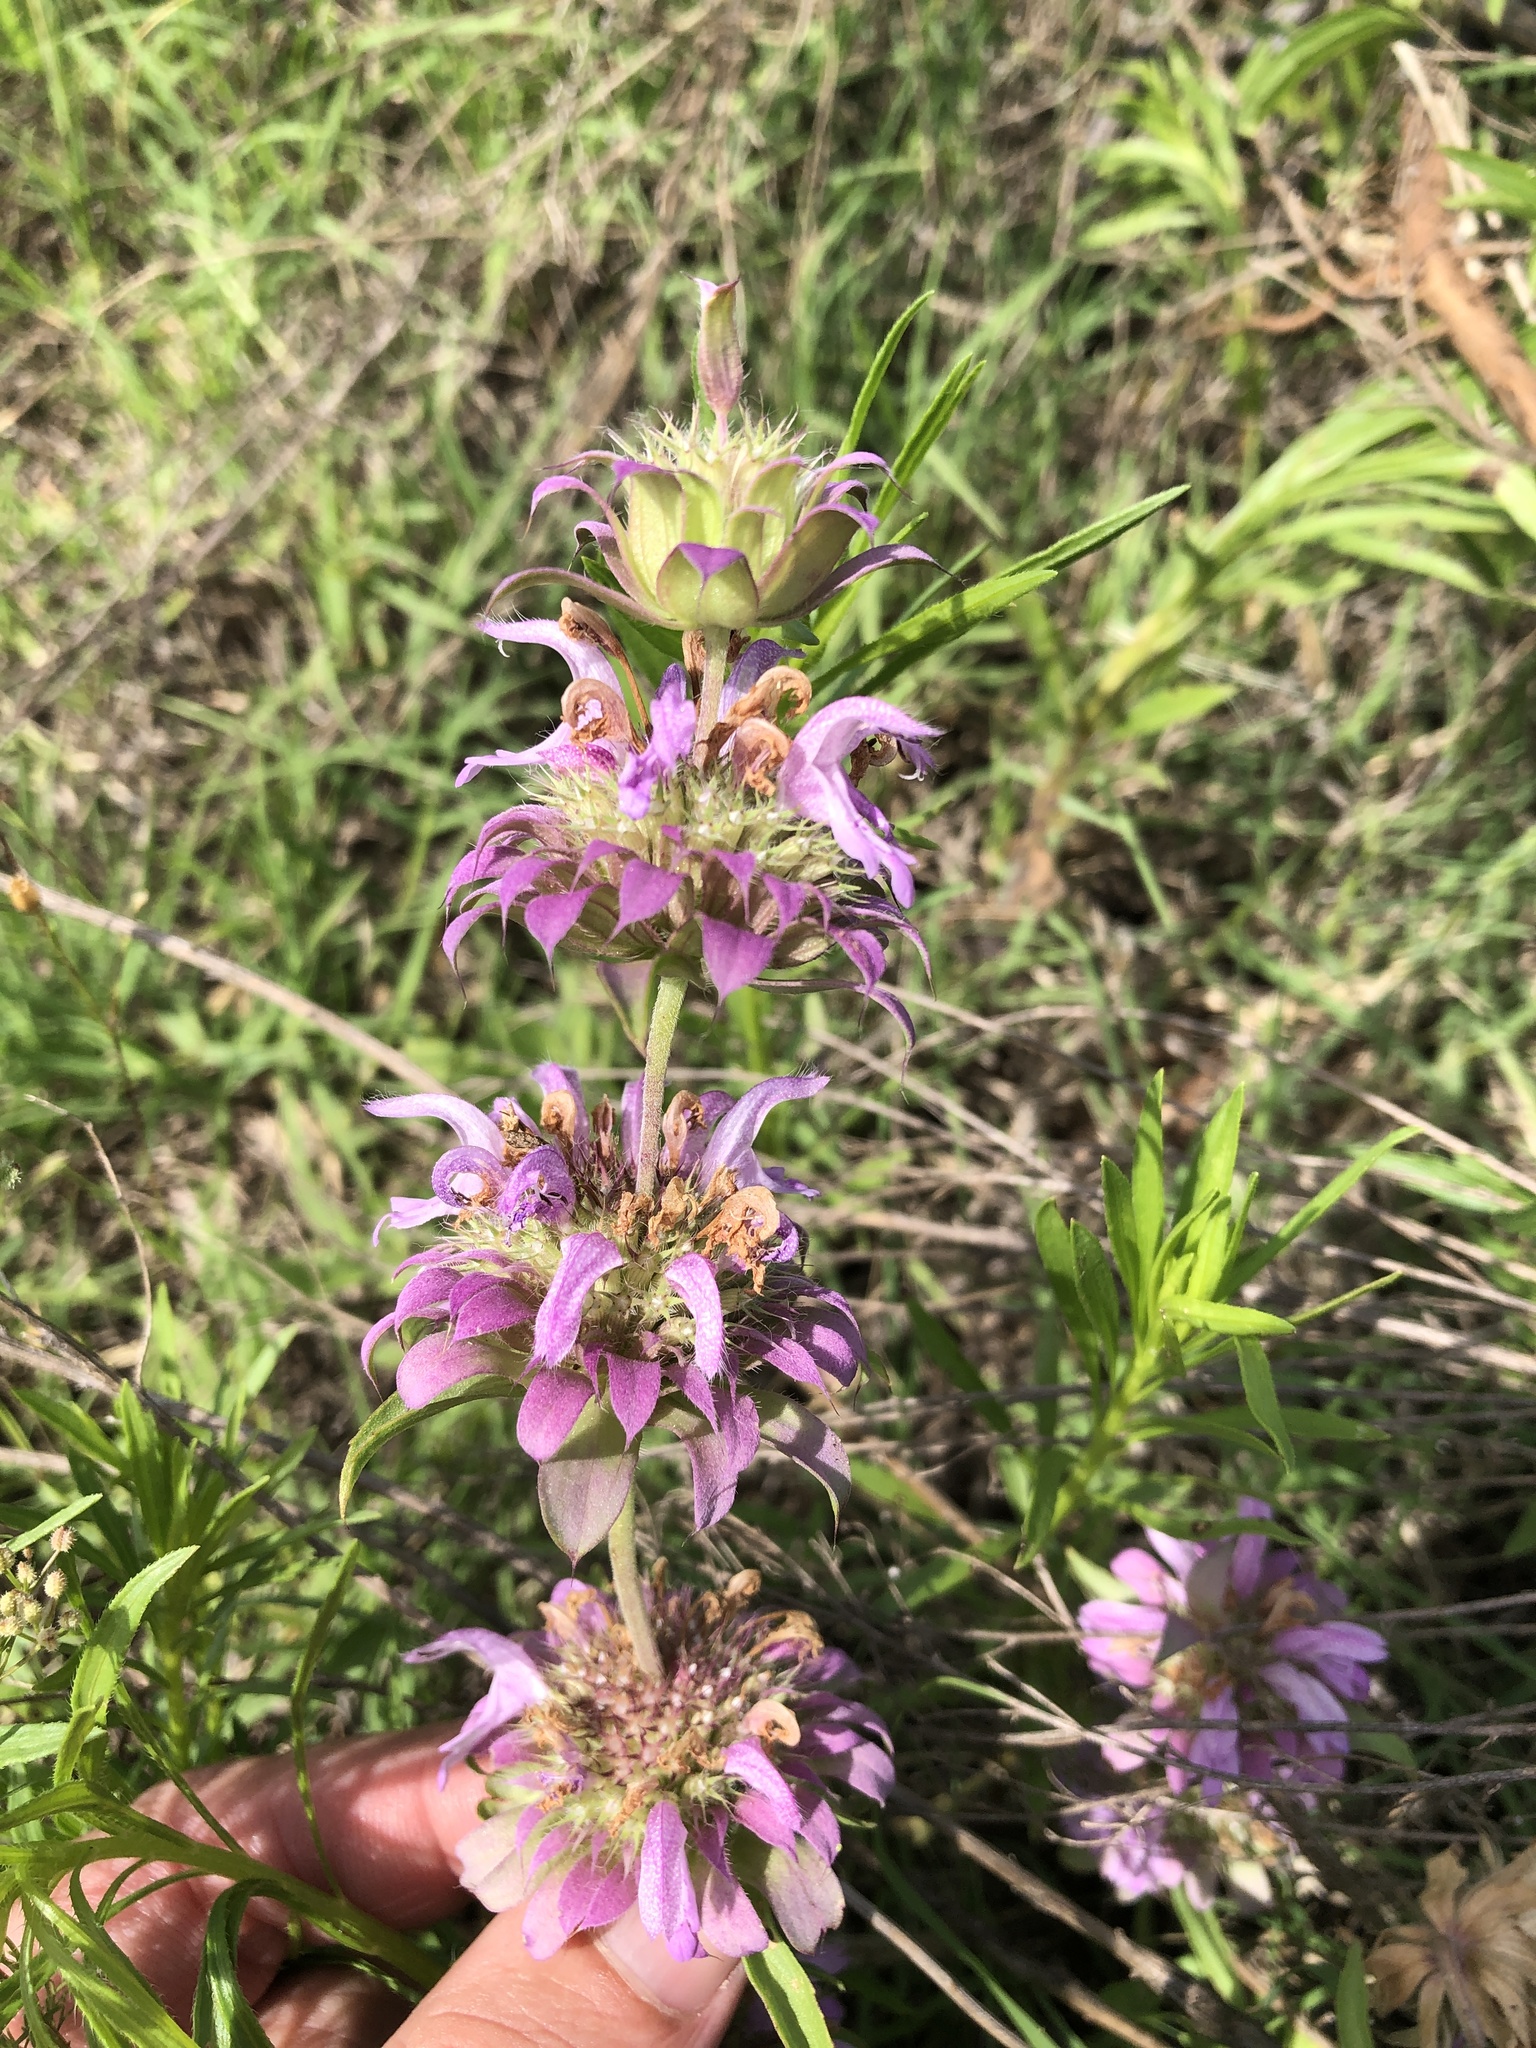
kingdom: Plantae
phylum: Tracheophyta
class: Magnoliopsida
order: Lamiales
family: Lamiaceae
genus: Monarda
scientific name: Monarda citriodora
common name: Lemon beebalm
